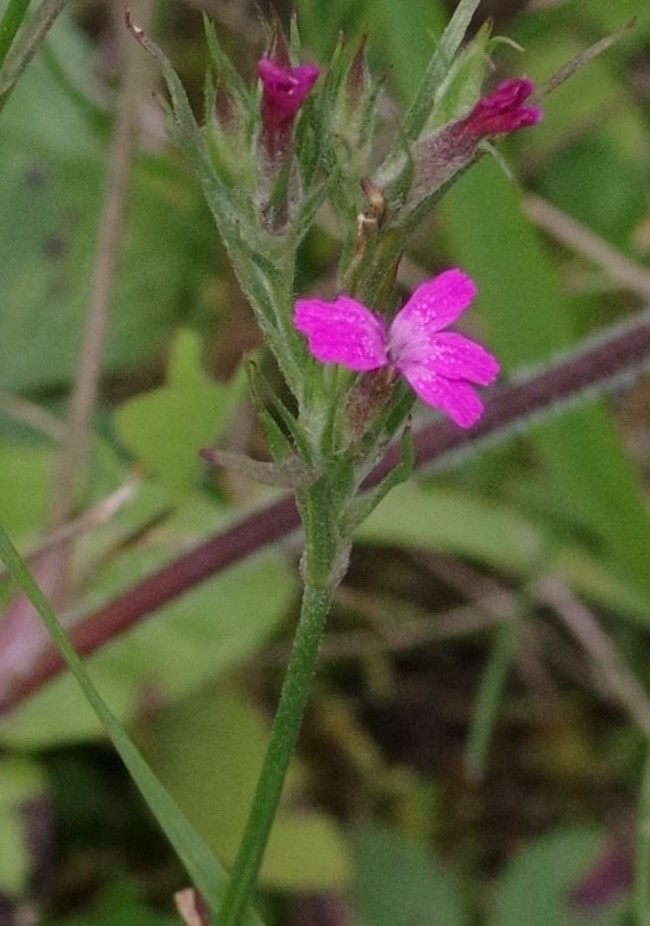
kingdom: Plantae
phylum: Tracheophyta
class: Magnoliopsida
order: Caryophyllales
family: Caryophyllaceae
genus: Dianthus
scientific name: Dianthus armeria
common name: Deptford pink
